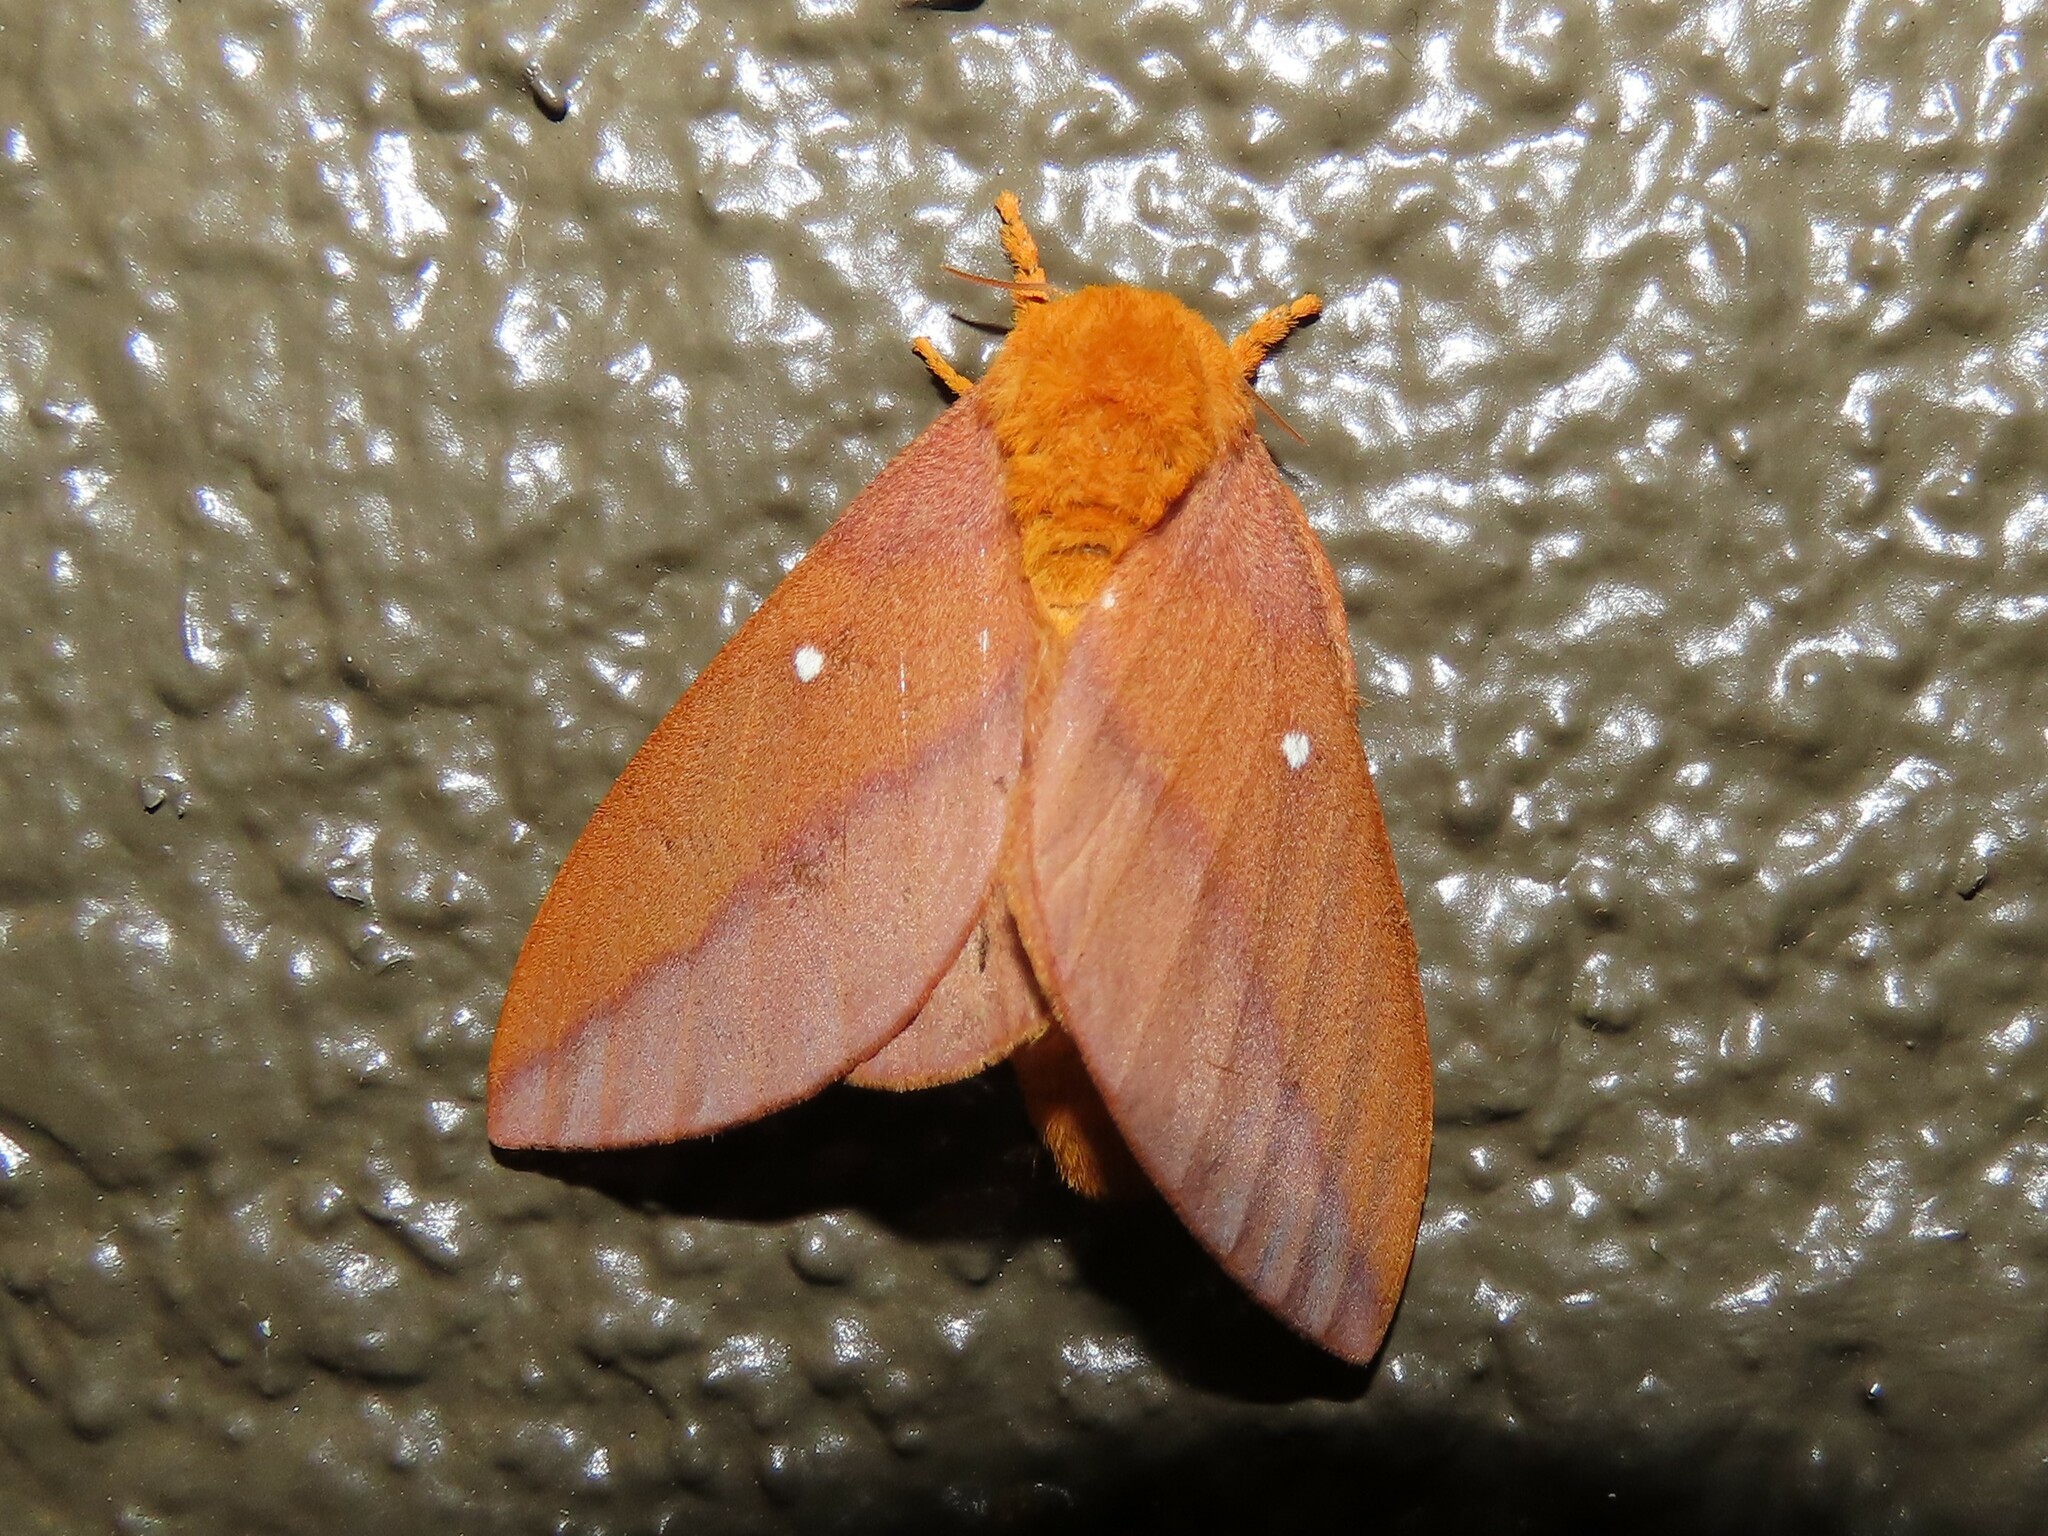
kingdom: Animalia
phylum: Arthropoda
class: Insecta
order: Lepidoptera
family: Saturniidae
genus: Anisota
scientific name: Anisota virginiensis
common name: Pink striped oakworm moth
